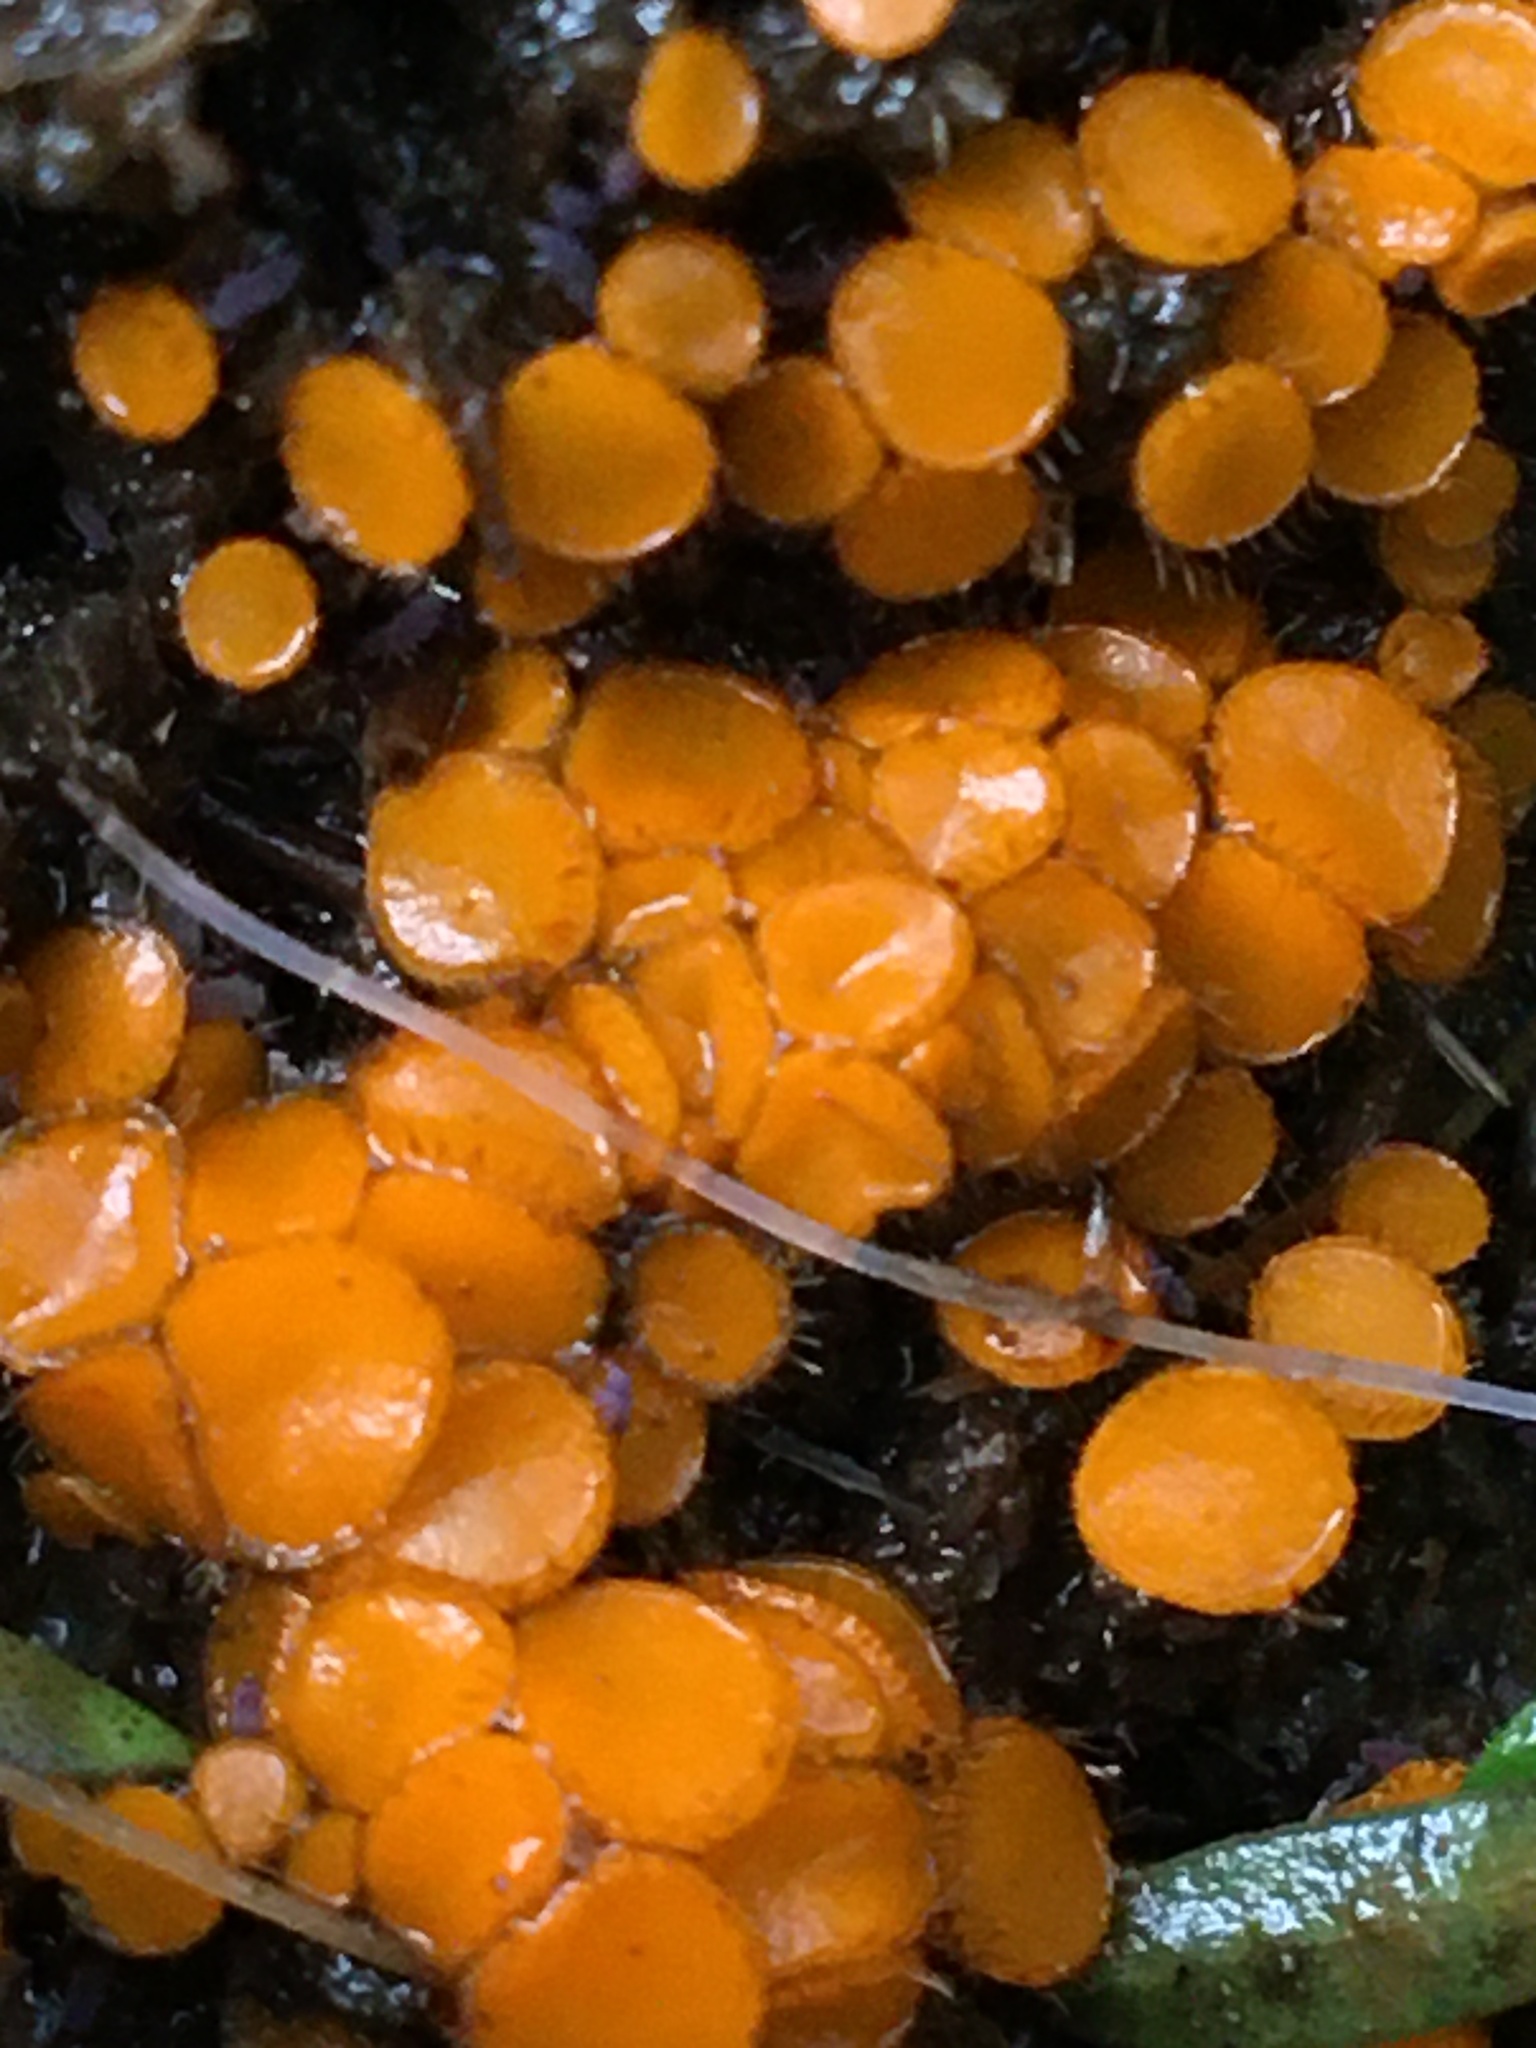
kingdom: Fungi
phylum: Ascomycota
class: Pezizomycetes
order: Pezizales
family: Pyronemataceae
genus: Cheilymenia
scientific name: Cheilymenia raripila
